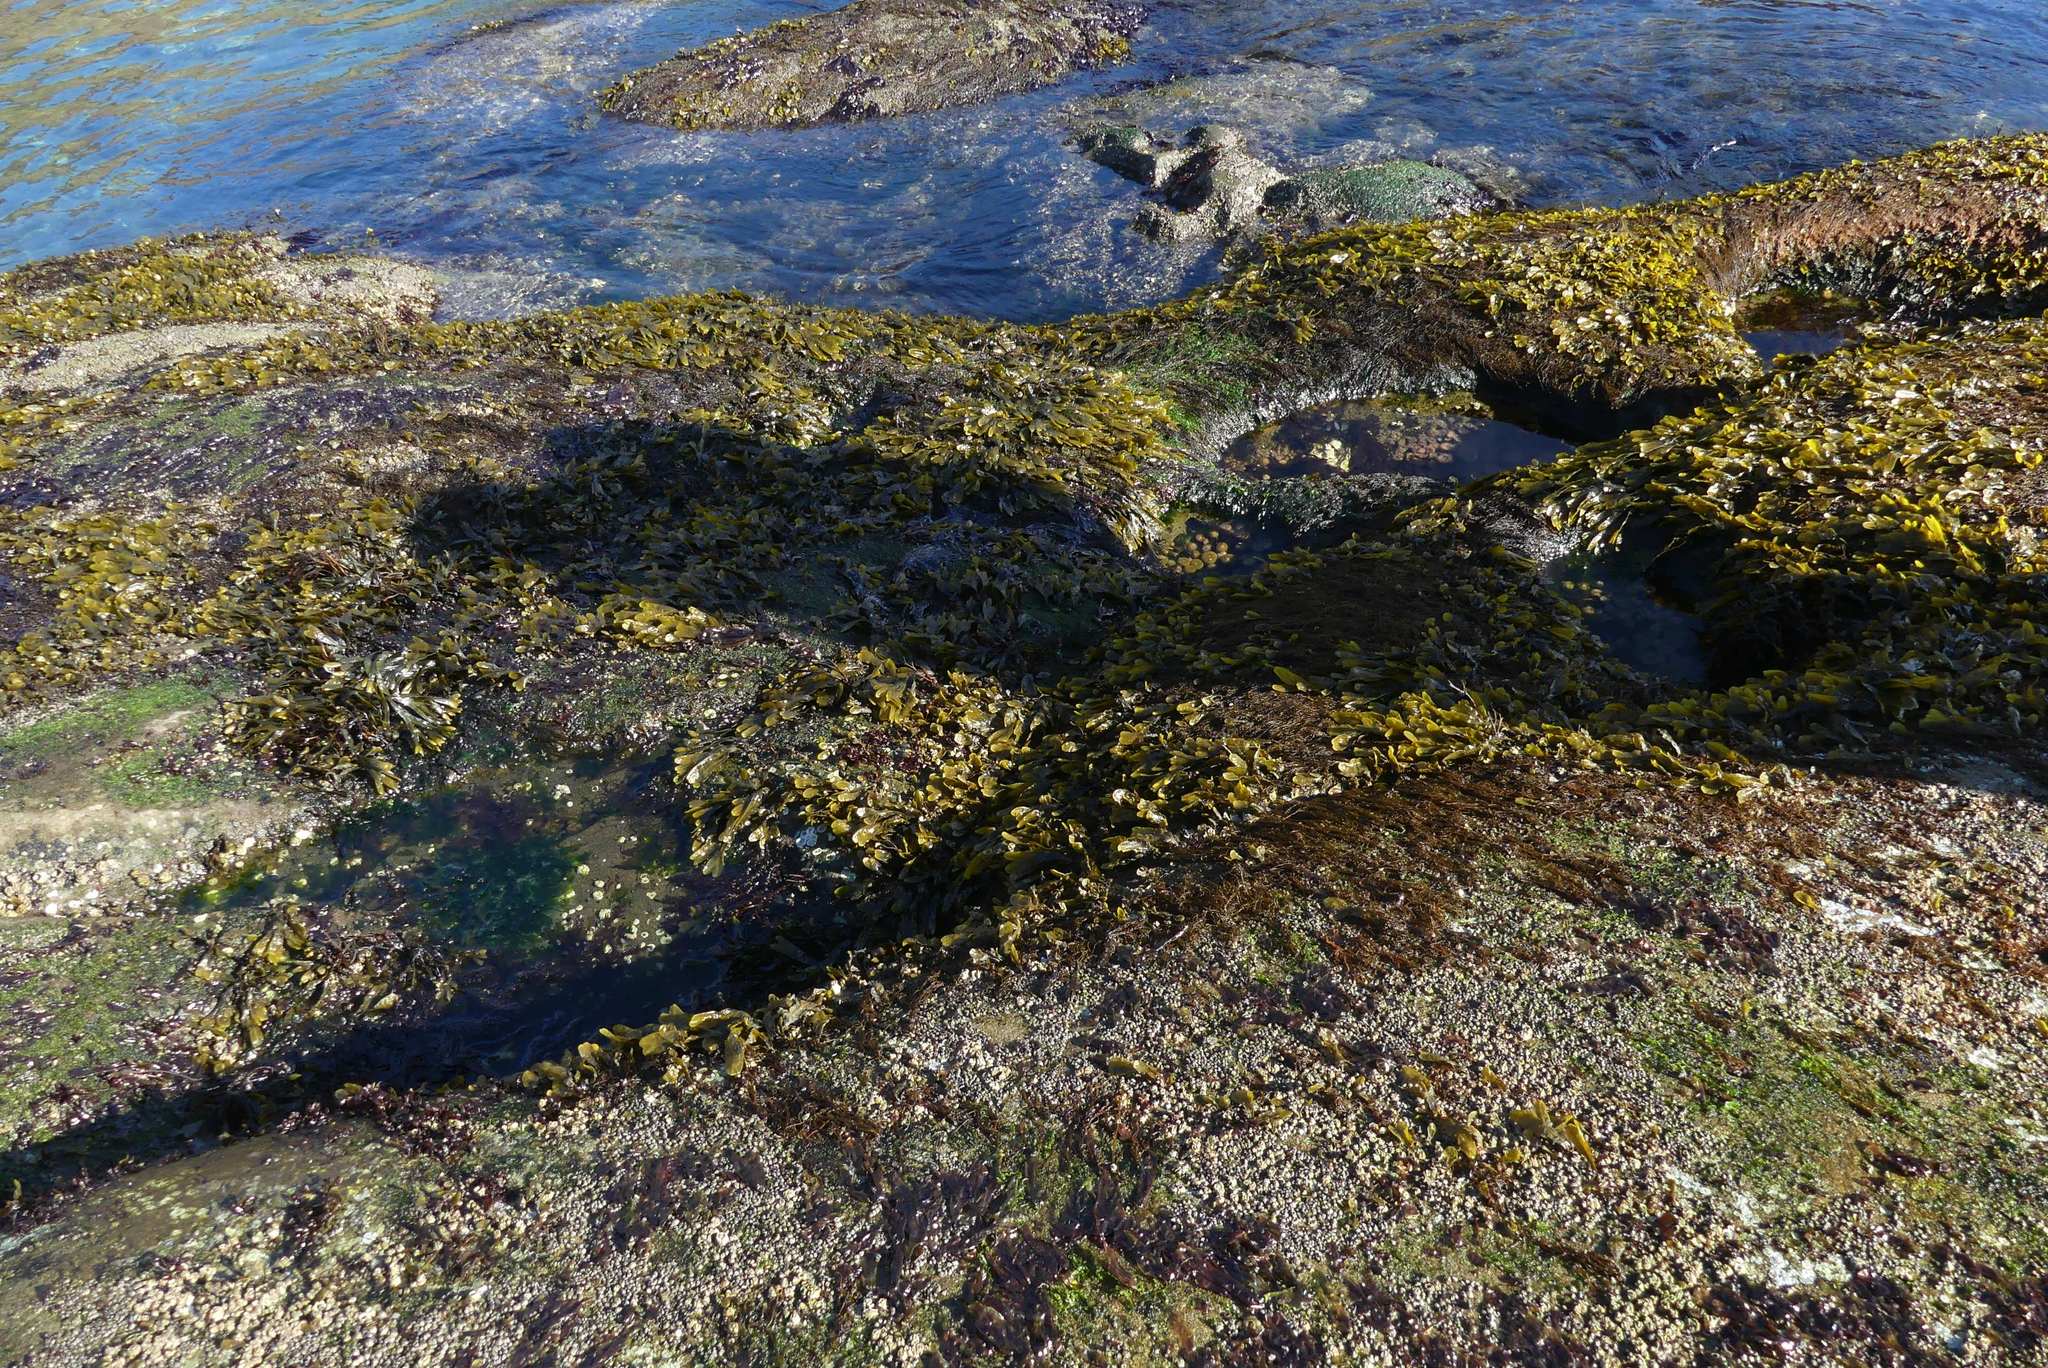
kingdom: Chromista
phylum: Ochrophyta
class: Phaeophyceae
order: Fucales
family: Fucaceae
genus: Fucus
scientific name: Fucus distichus
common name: Rockweed
